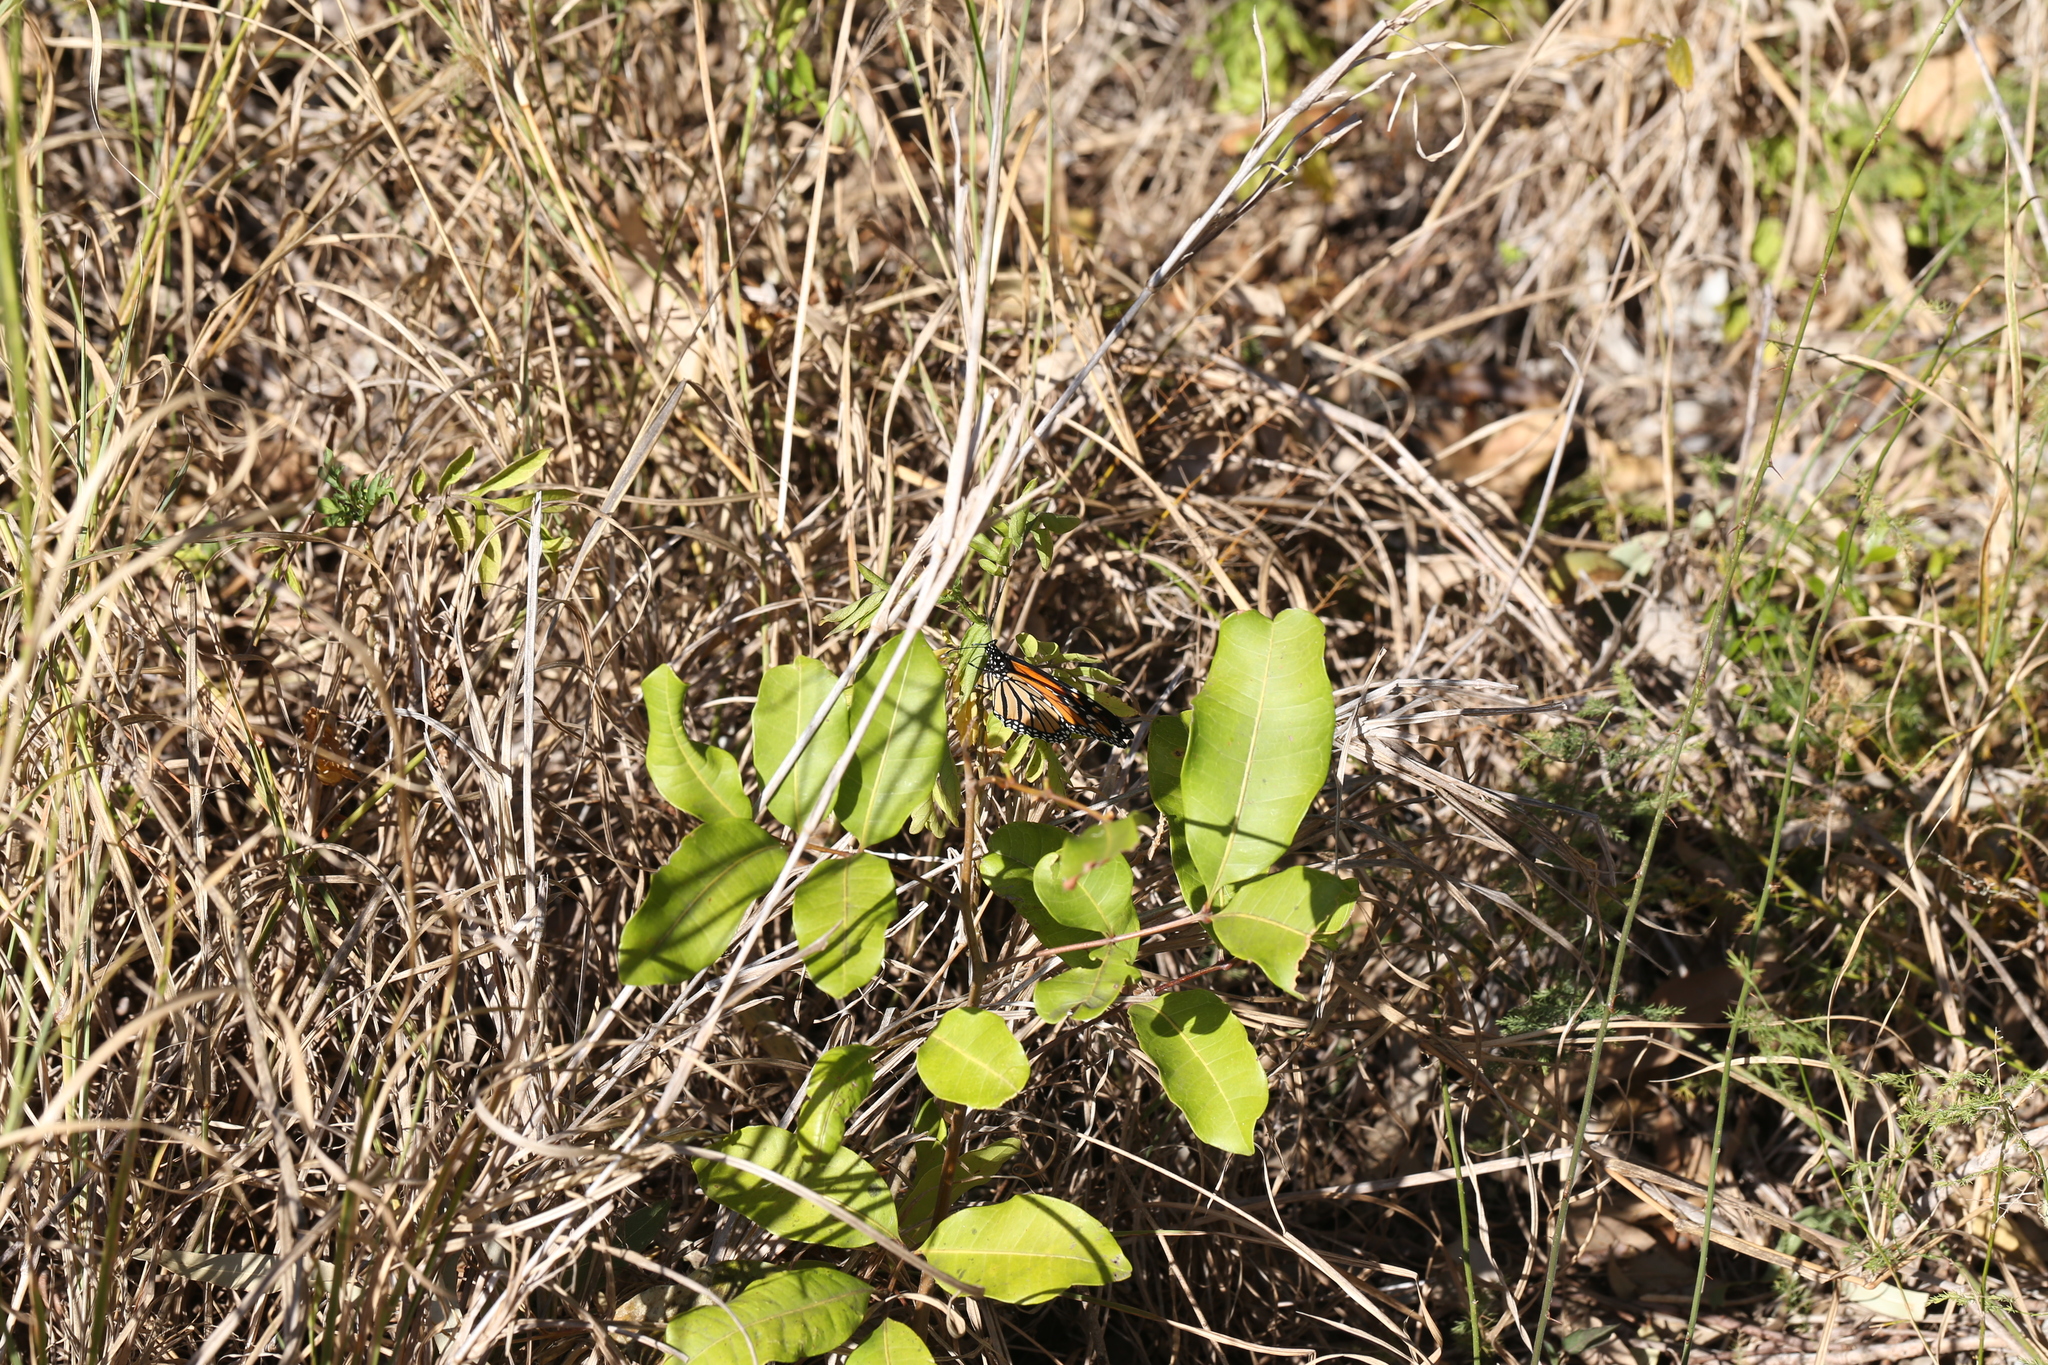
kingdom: Animalia
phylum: Arthropoda
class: Insecta
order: Lepidoptera
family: Nymphalidae
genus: Danaus
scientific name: Danaus plexippus
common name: Monarch
